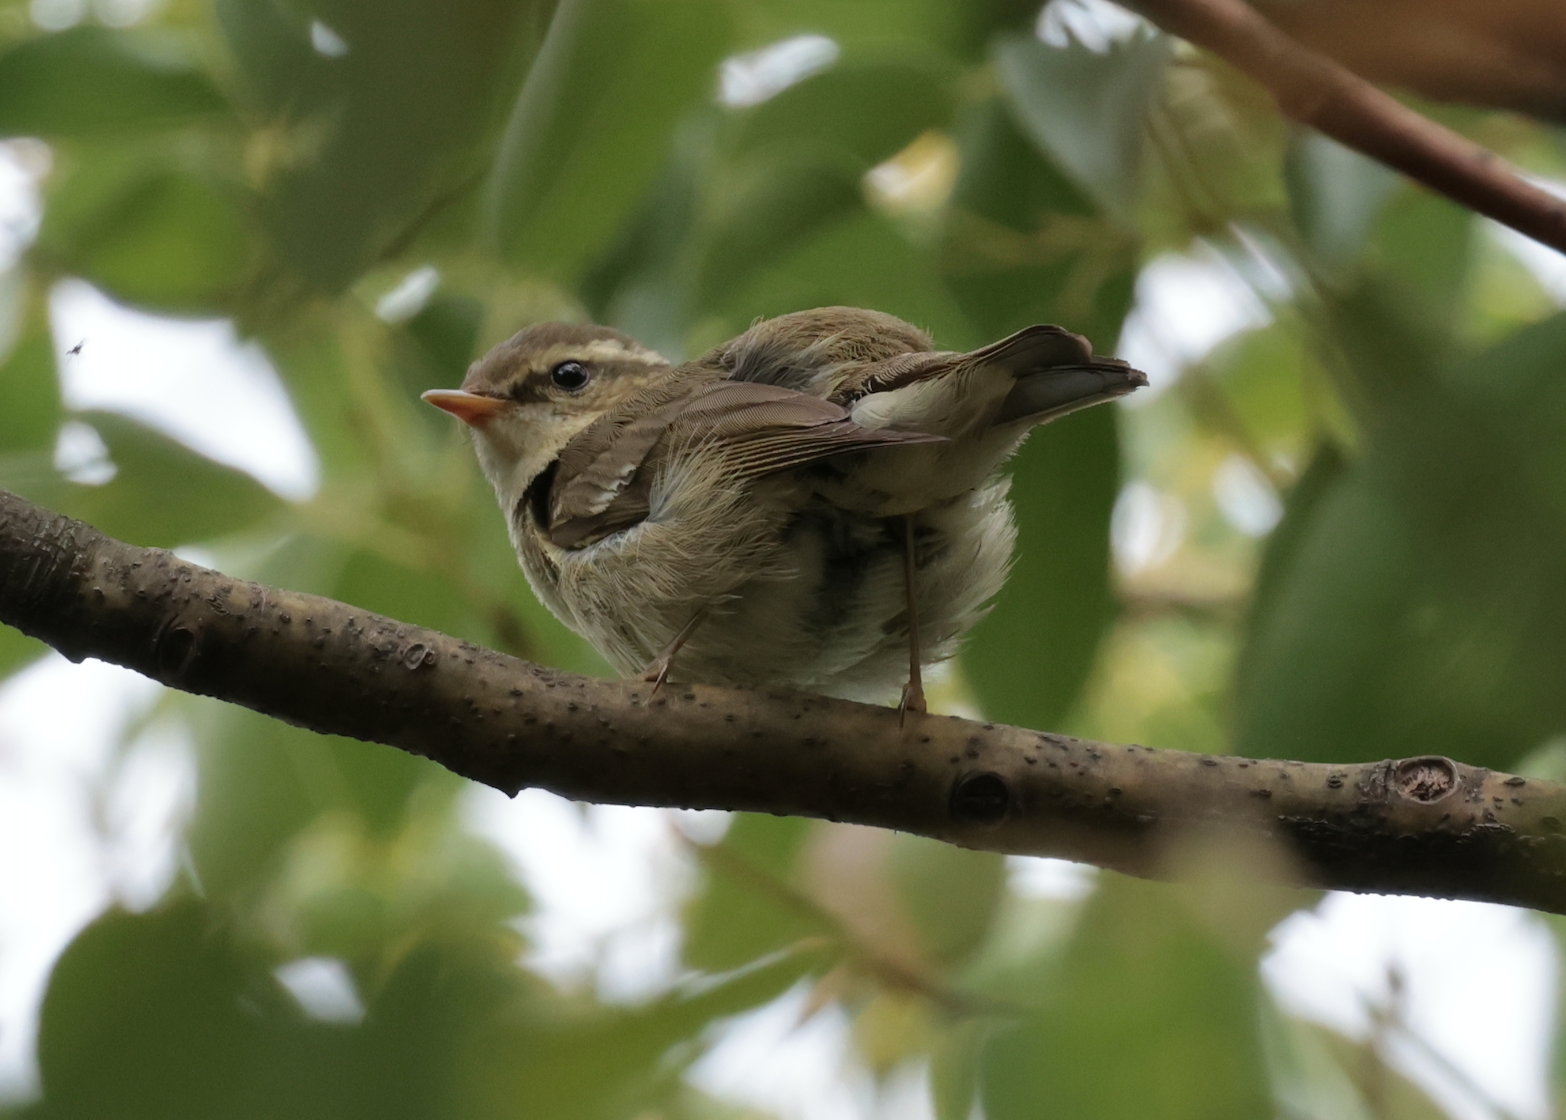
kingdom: Animalia
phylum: Chordata
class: Aves
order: Passeriformes
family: Phylloscopidae
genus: Phylloscopus
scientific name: Phylloscopus borealis
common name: Arctic warbler
